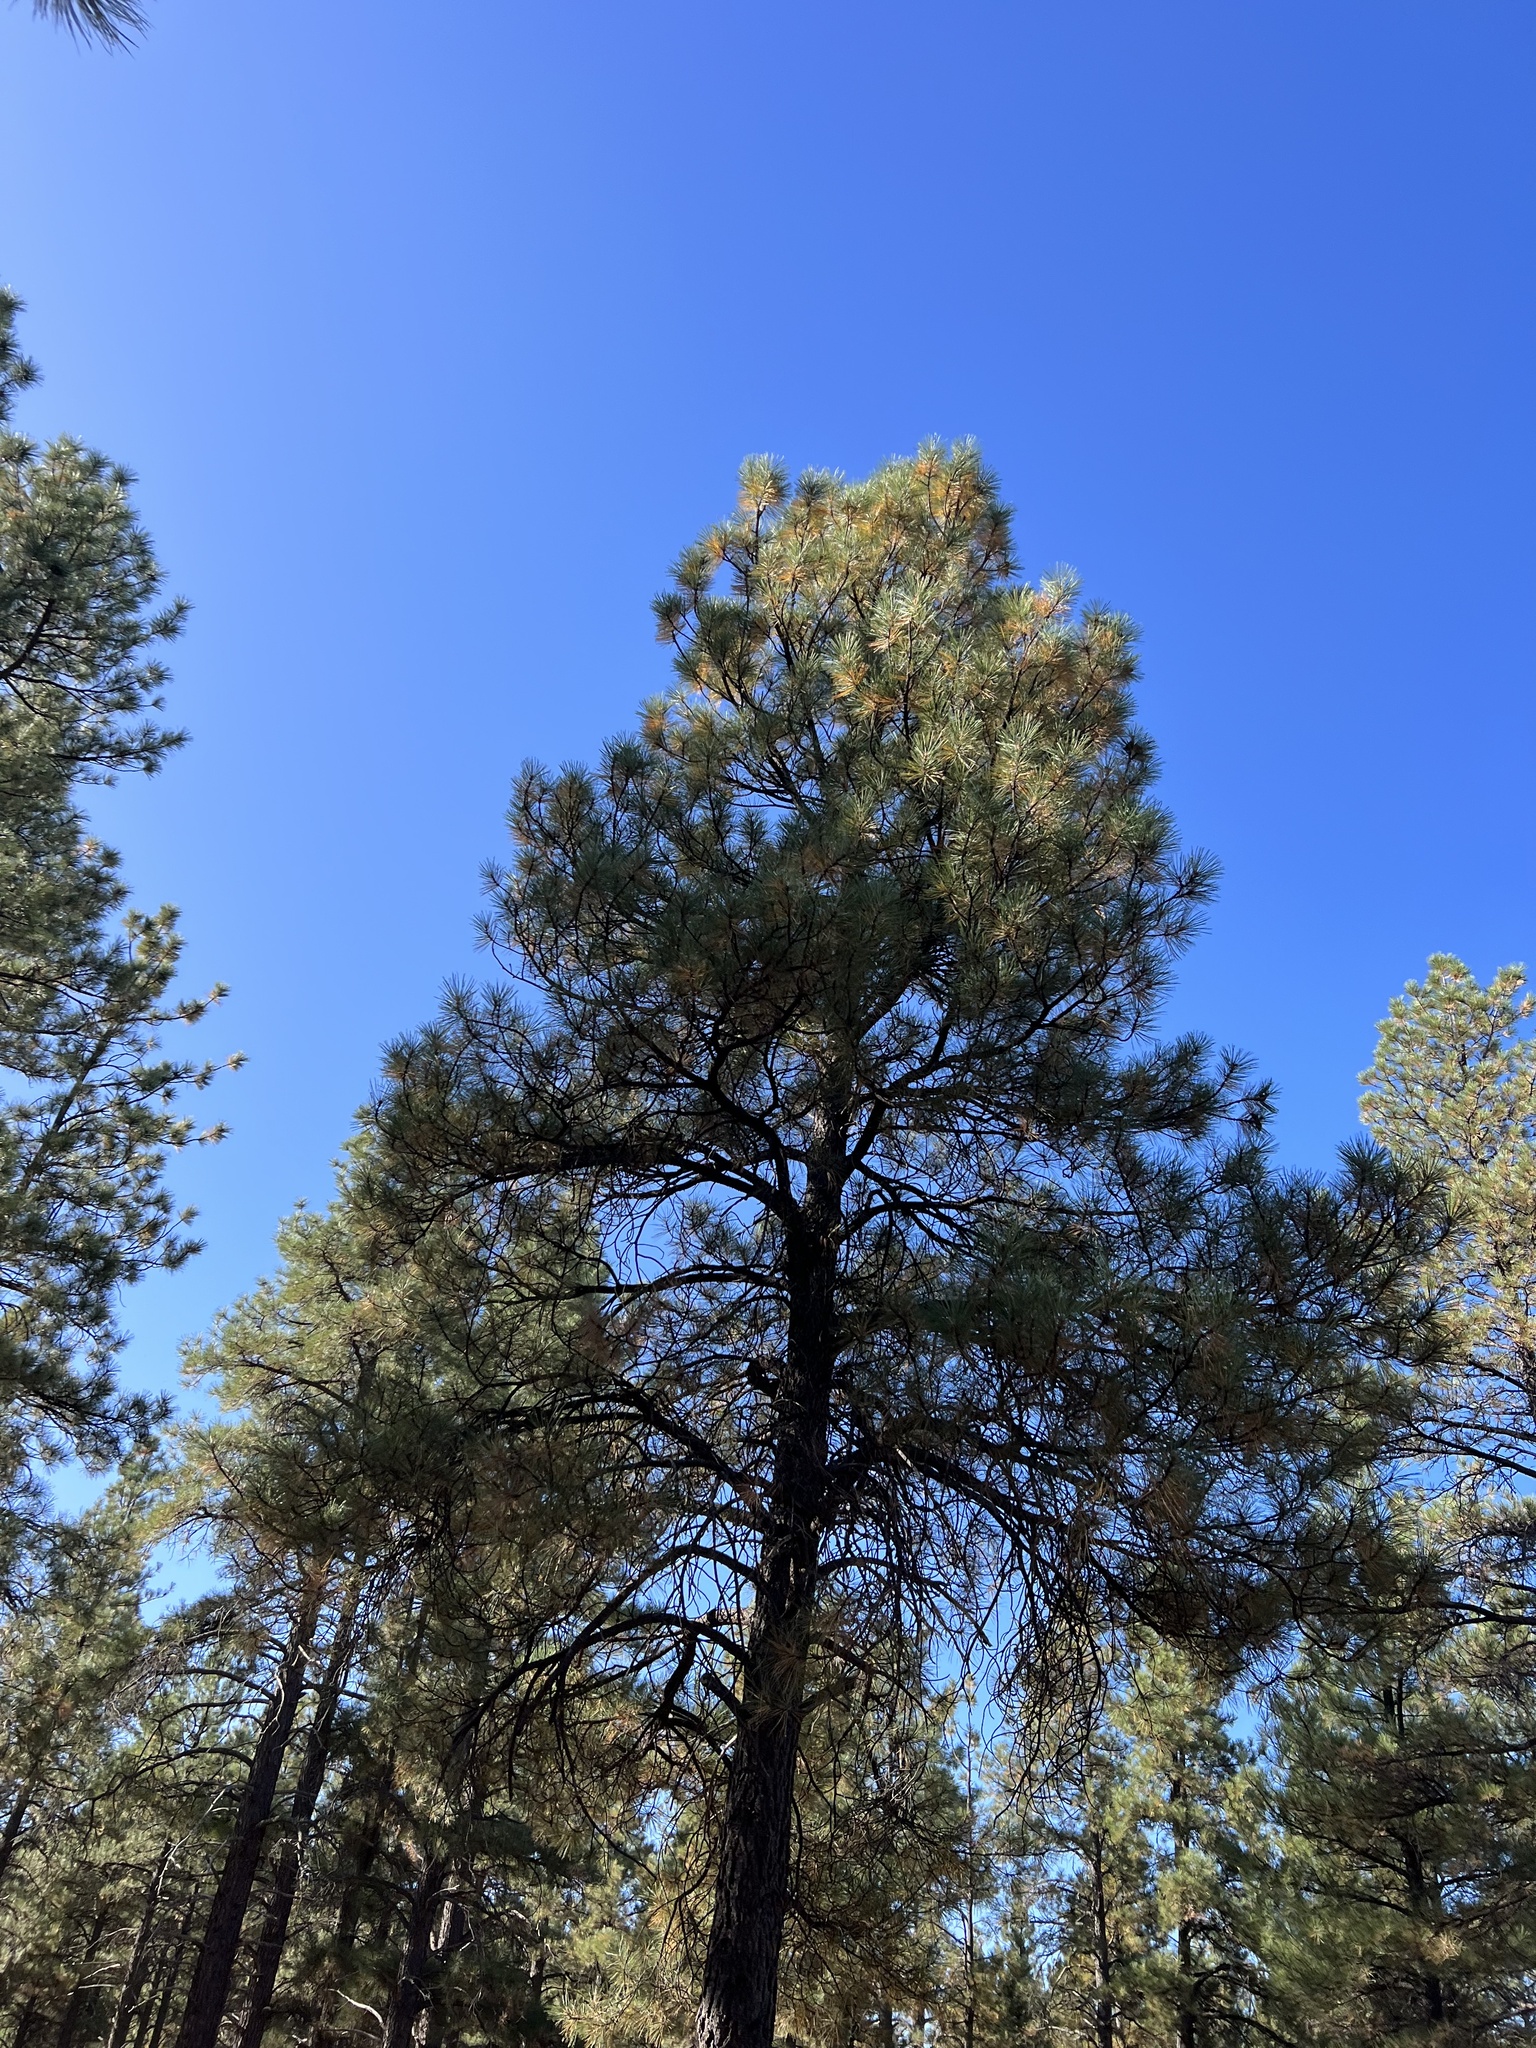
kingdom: Plantae
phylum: Tracheophyta
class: Pinopsida
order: Pinales
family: Pinaceae
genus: Pinus
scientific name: Pinus ponderosa
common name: Western yellow-pine
